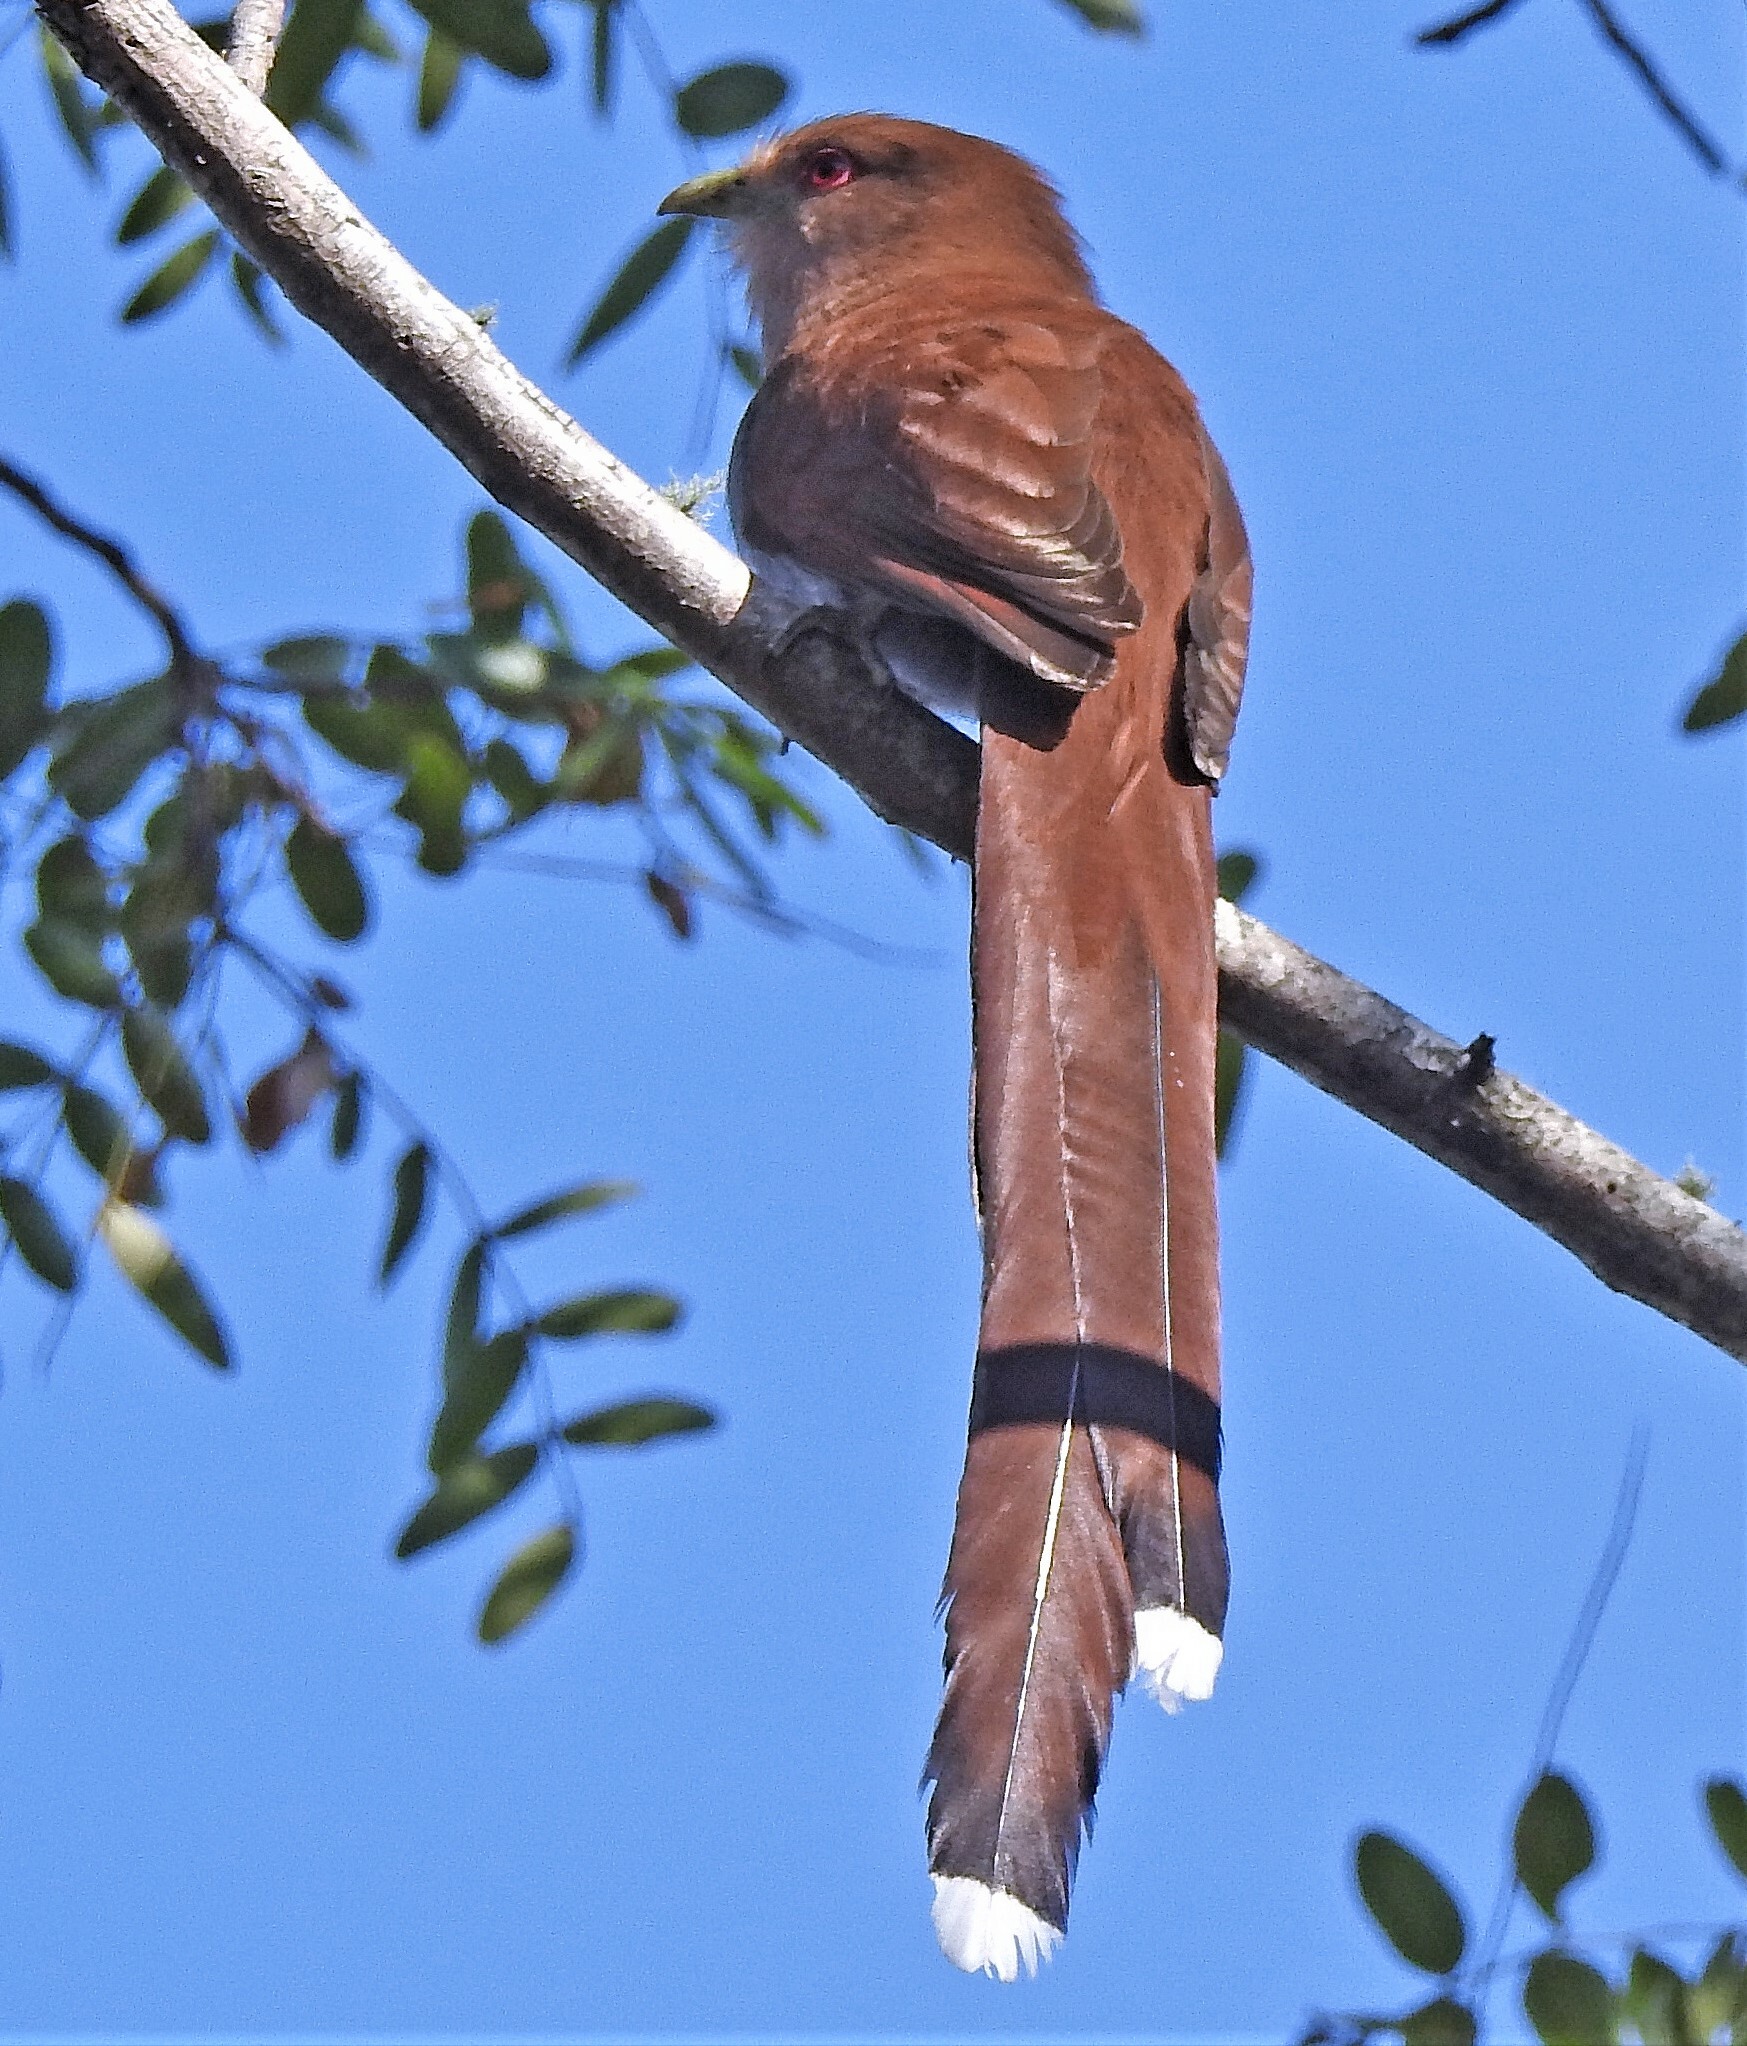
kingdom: Animalia
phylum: Chordata
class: Aves
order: Cuculiformes
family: Cuculidae
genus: Piaya
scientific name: Piaya cayana
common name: Squirrel cuckoo
